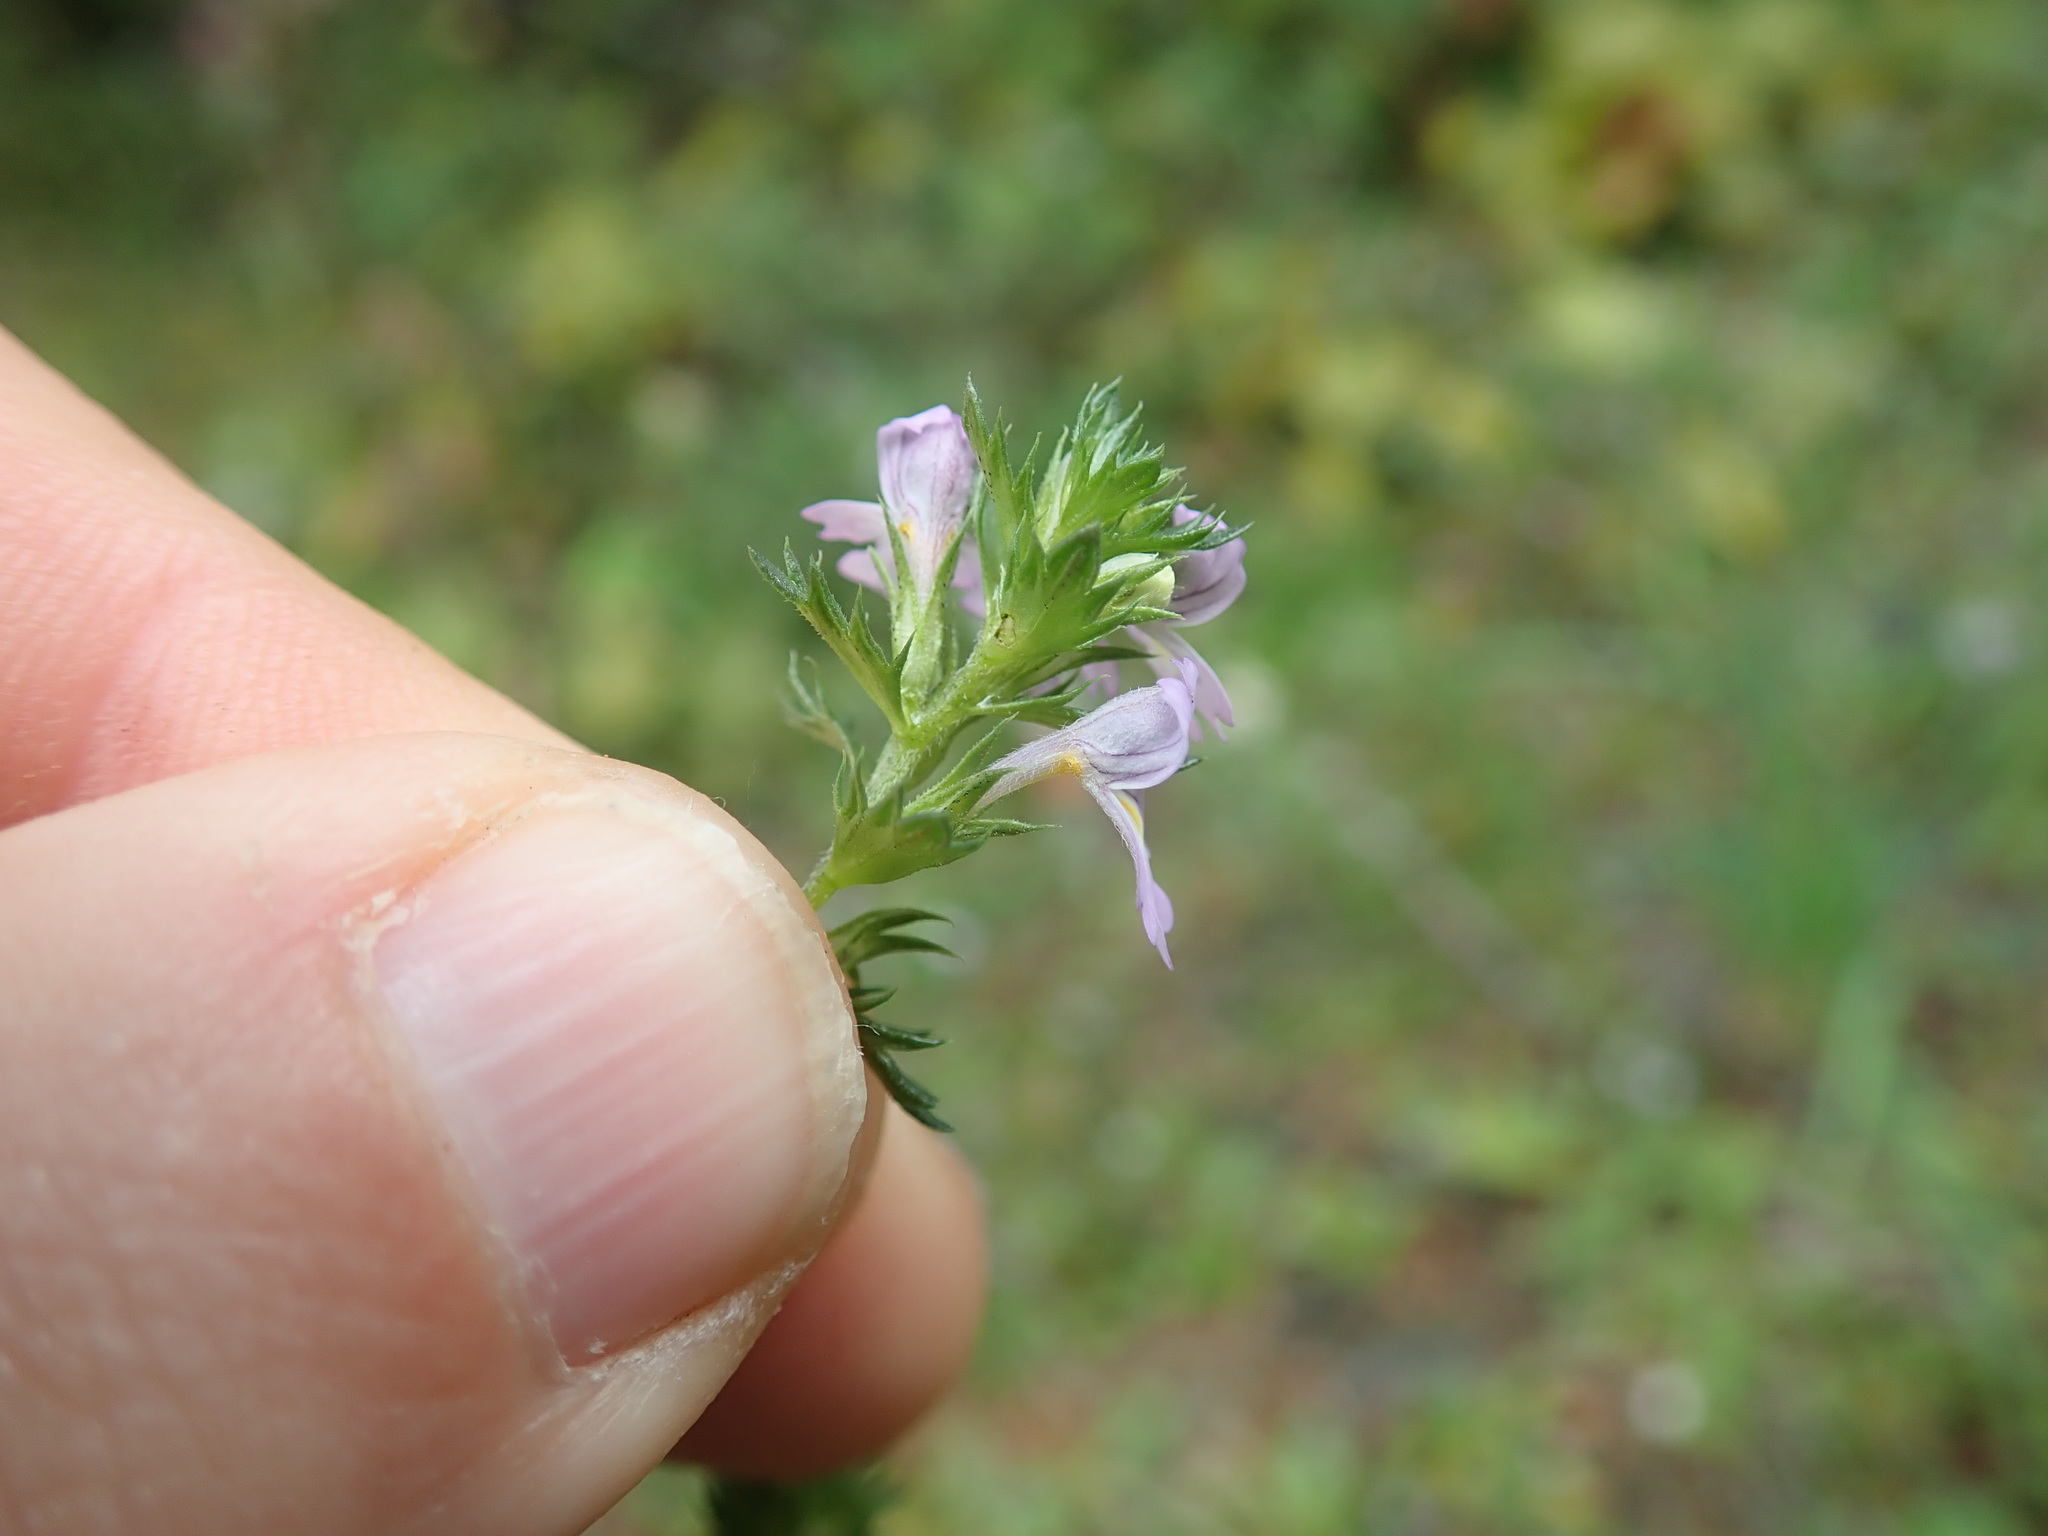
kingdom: Plantae
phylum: Tracheophyta
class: Magnoliopsida
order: Lamiales
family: Orobanchaceae
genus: Euphrasia
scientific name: Euphrasia nemorosa
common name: Common eyebright
